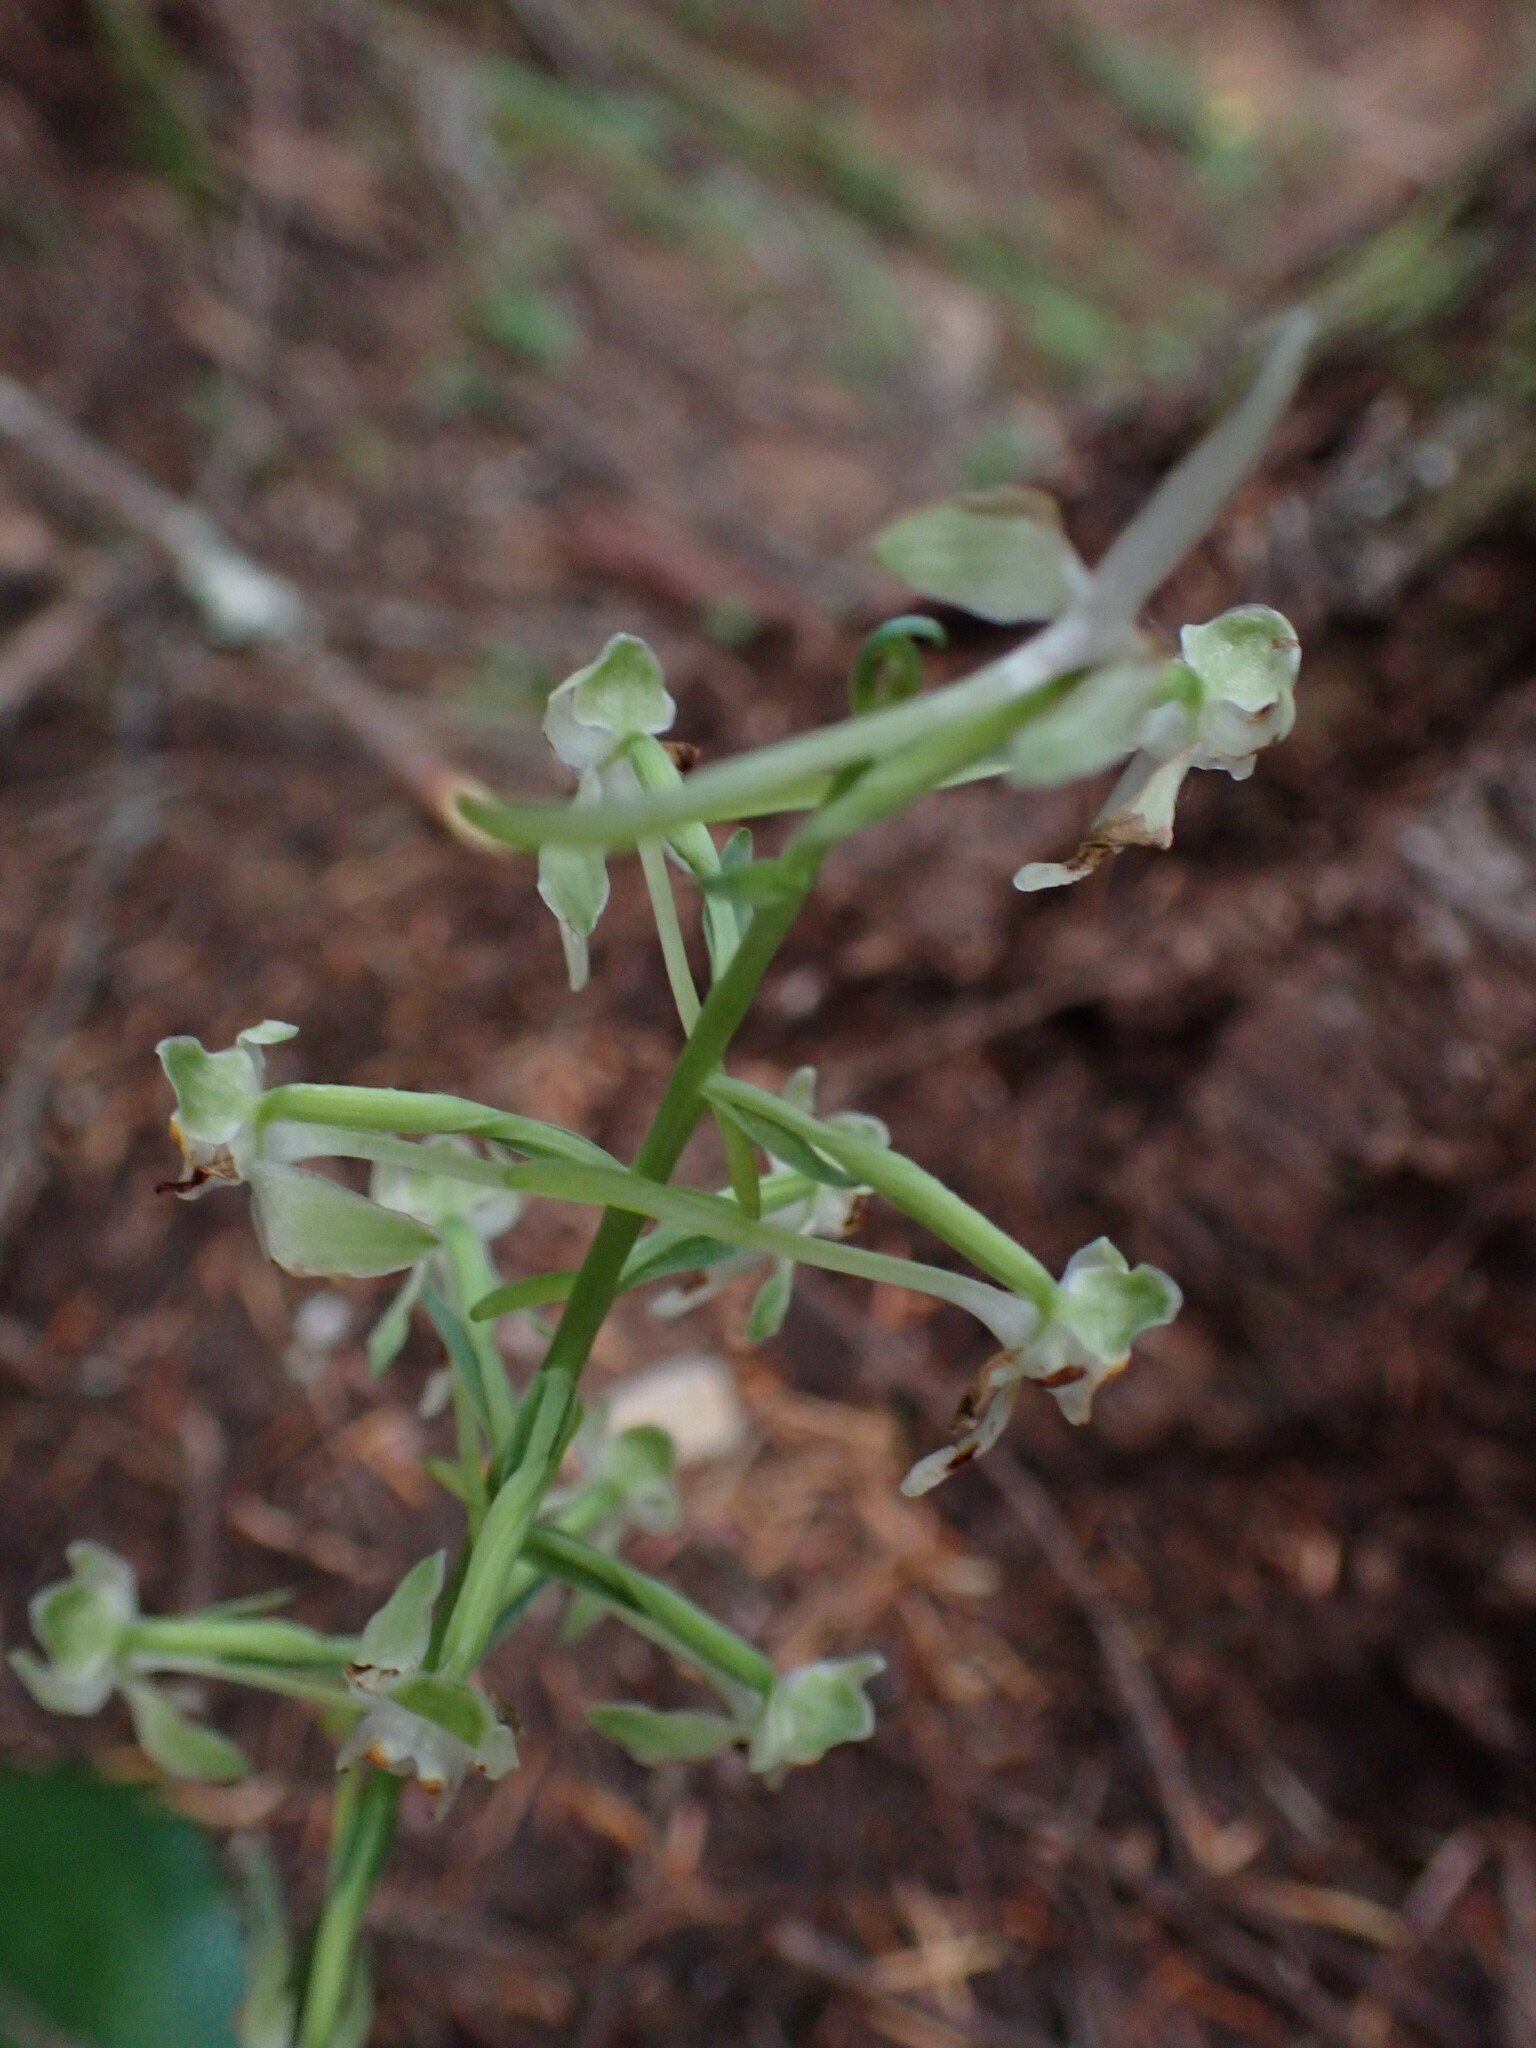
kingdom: Plantae
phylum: Tracheophyta
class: Liliopsida
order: Asparagales
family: Orchidaceae
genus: Platanthera
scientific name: Platanthera orbiculata
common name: Large round-leaved orchid
